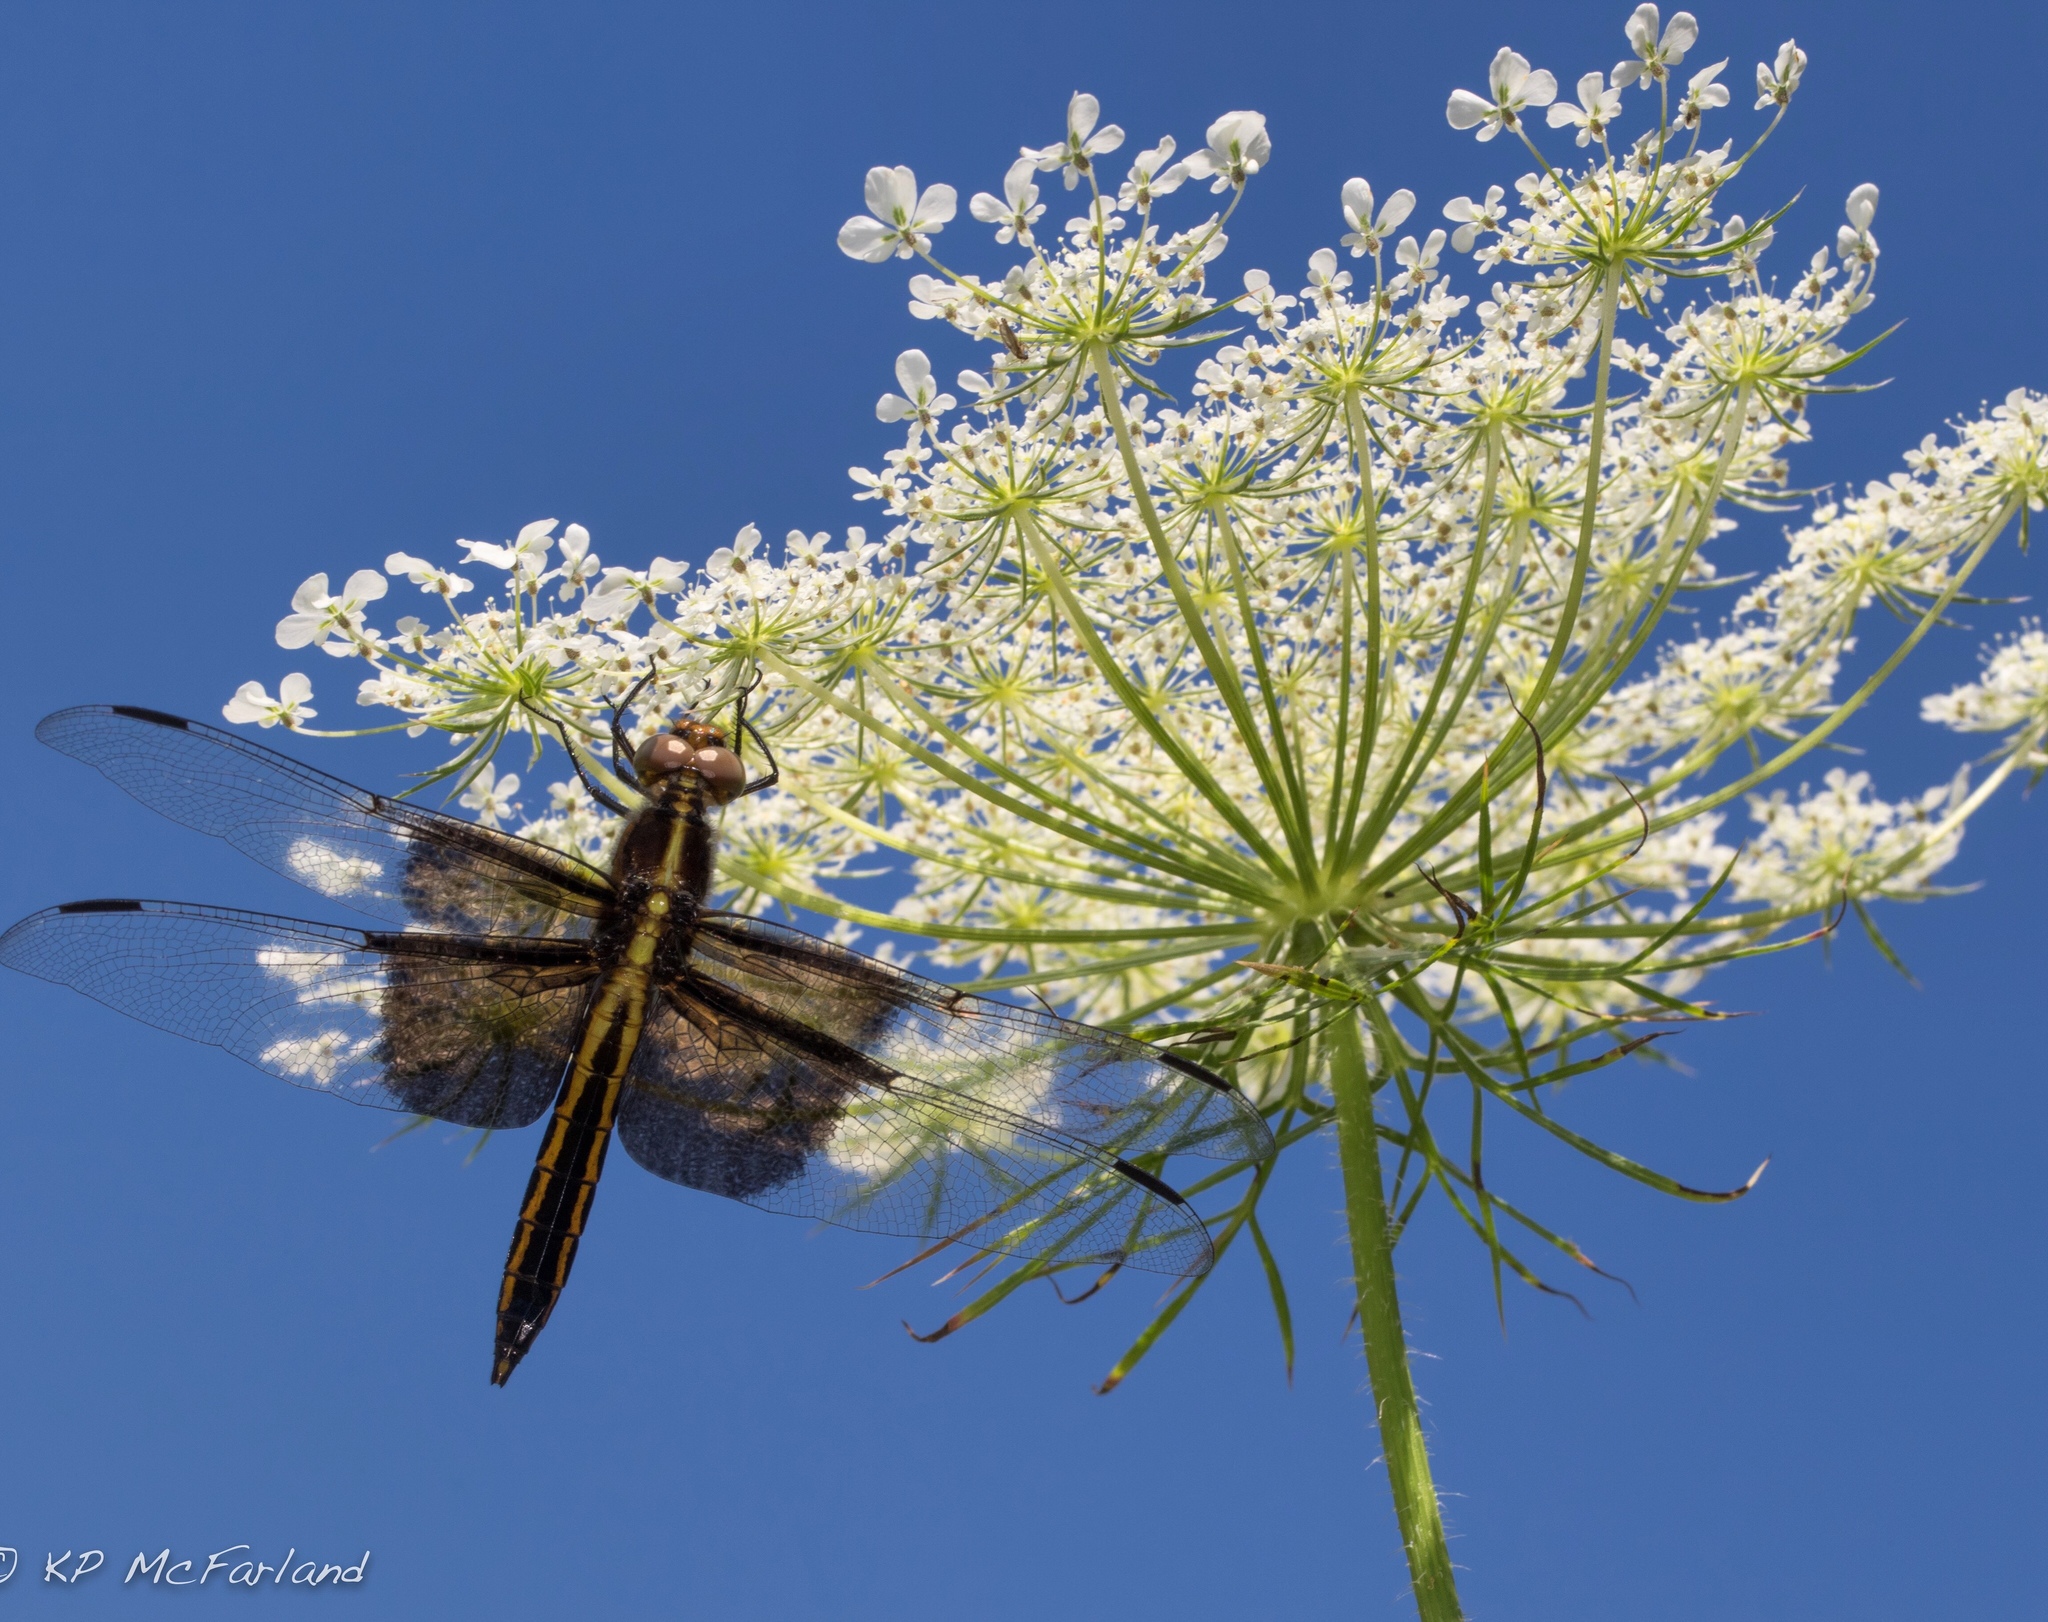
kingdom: Plantae
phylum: Tracheophyta
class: Magnoliopsida
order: Apiales
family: Apiaceae
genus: Daucus
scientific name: Daucus carota
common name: Wild carrot
